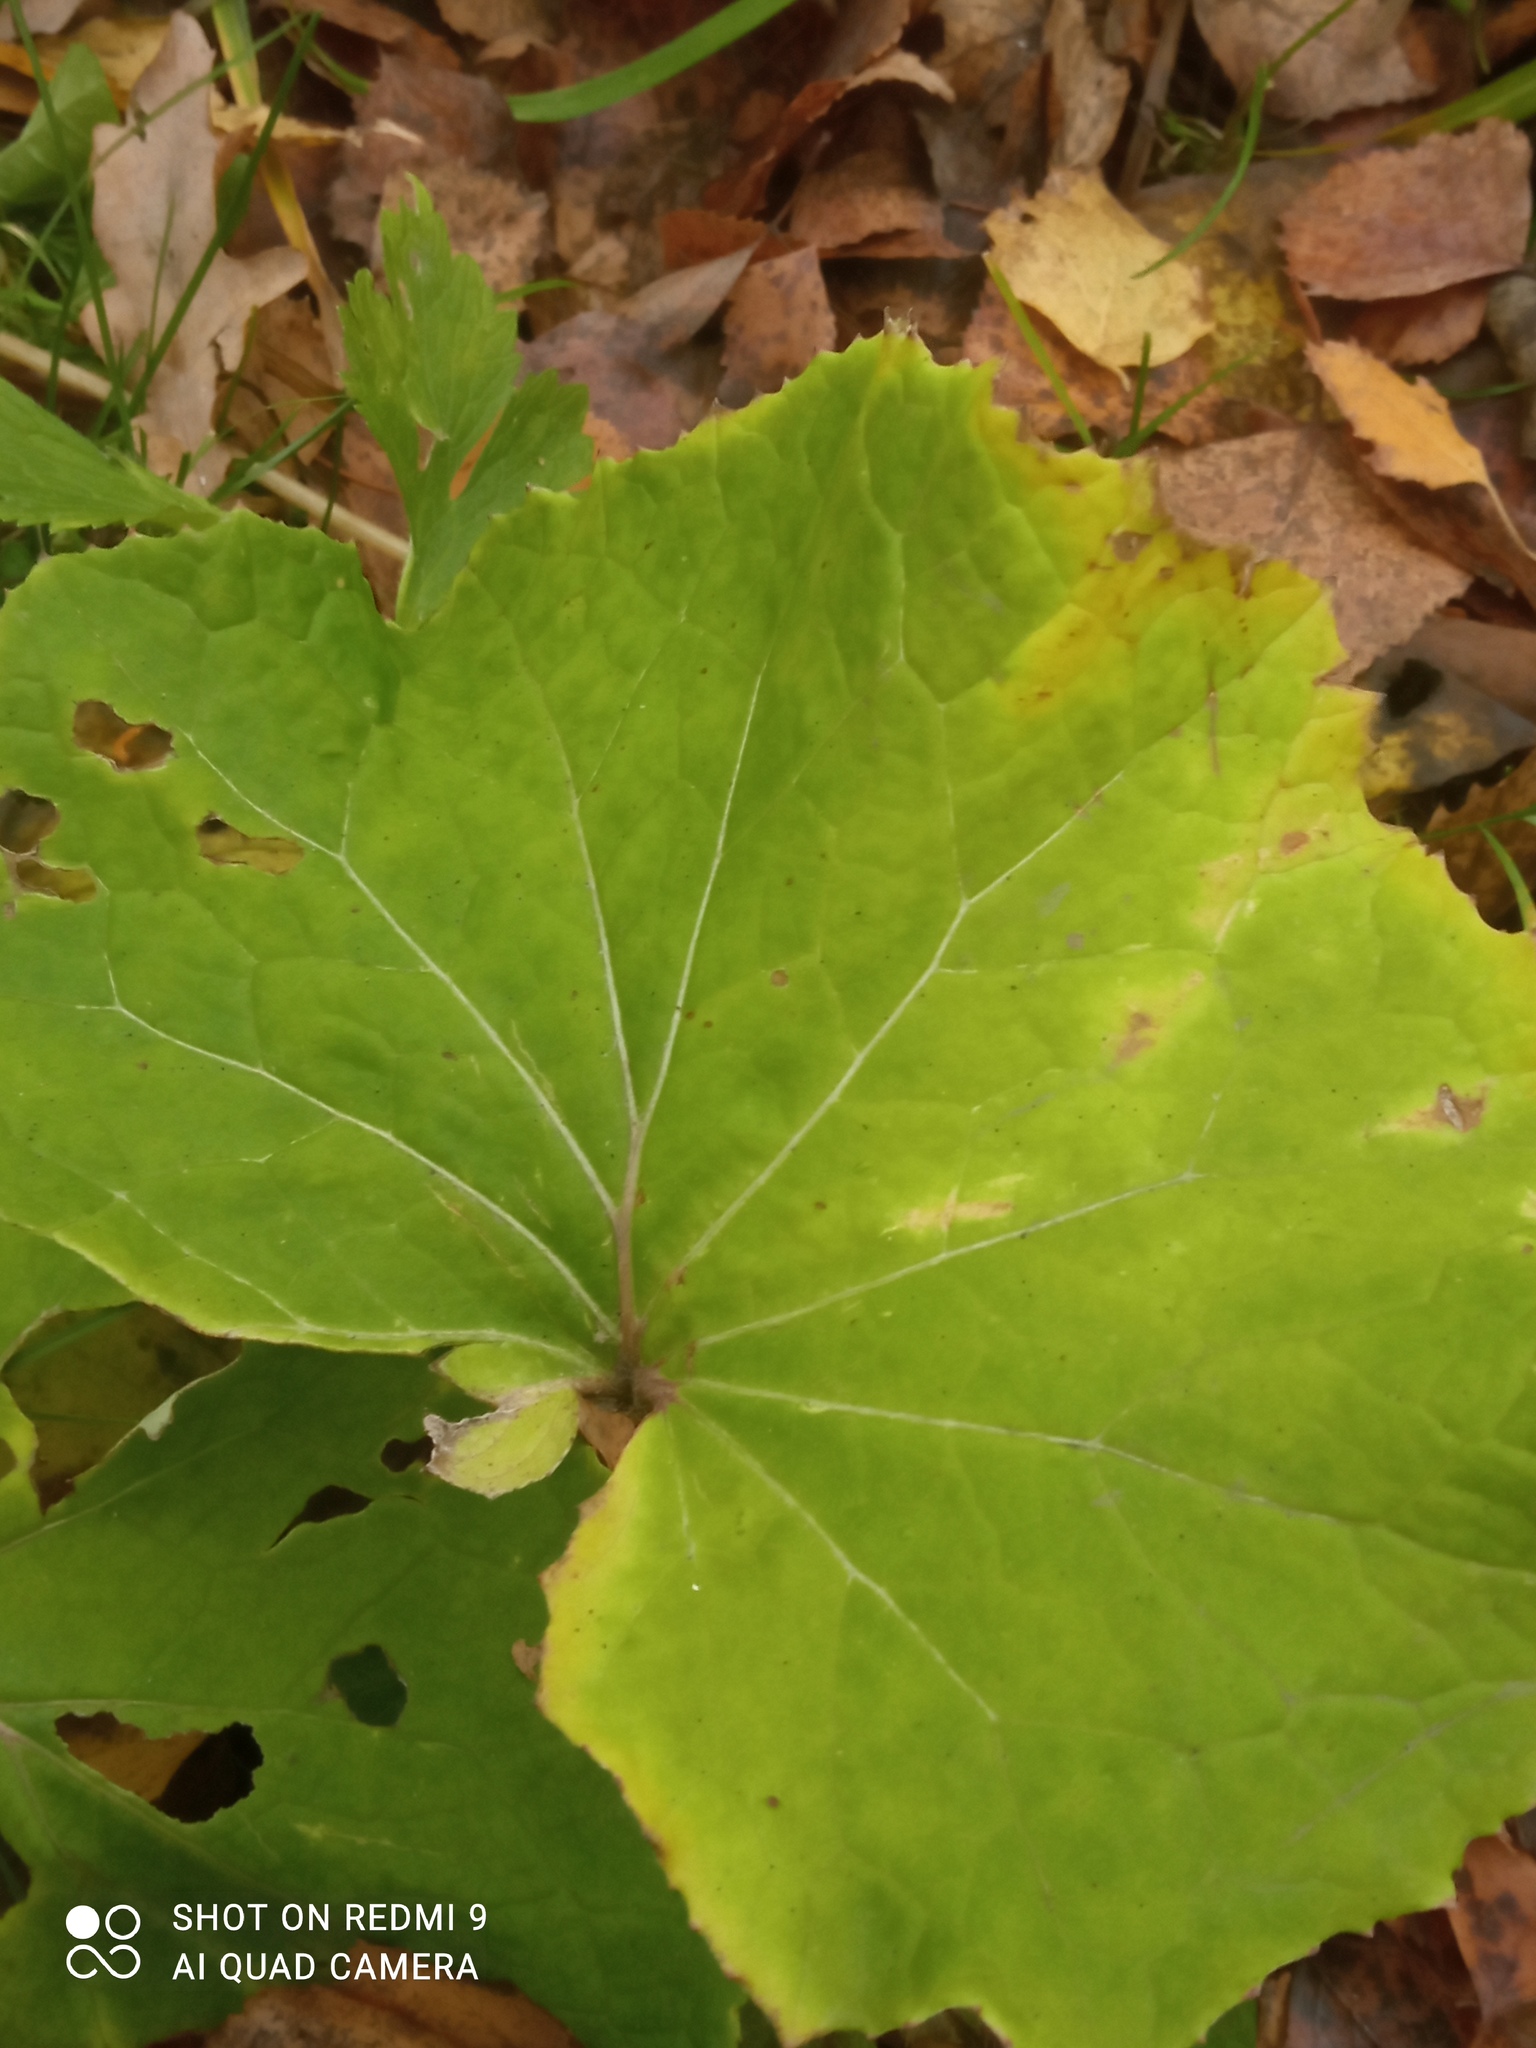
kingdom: Plantae
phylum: Tracheophyta
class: Magnoliopsida
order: Asterales
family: Asteraceae
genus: Tussilago
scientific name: Tussilago farfara
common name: Coltsfoot
